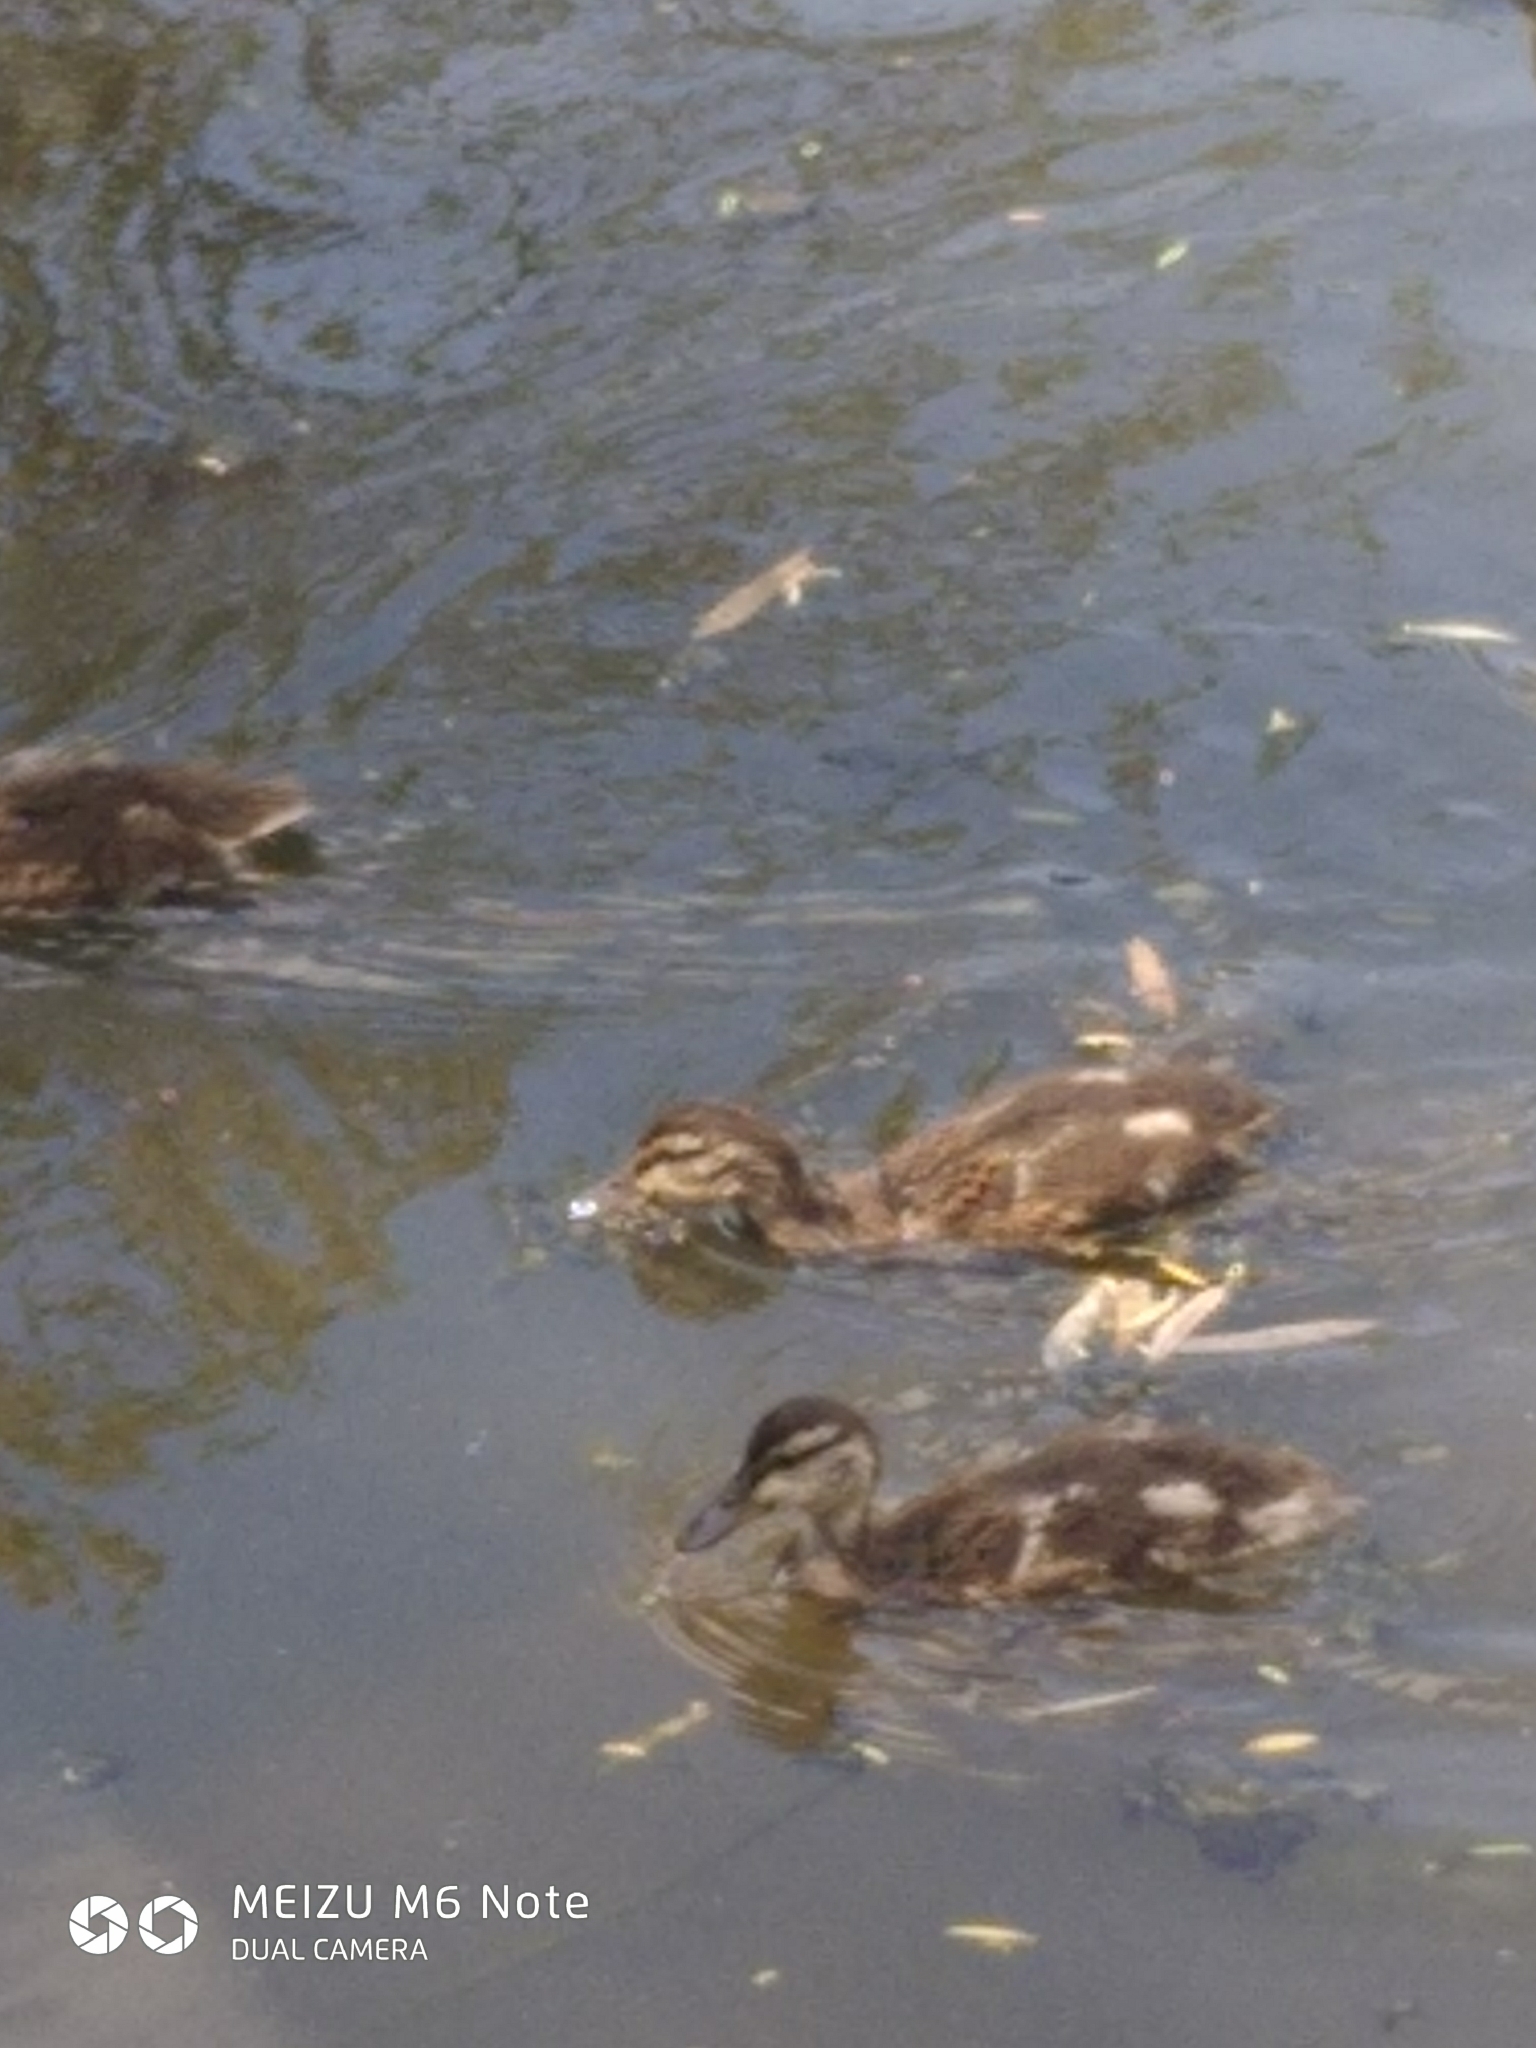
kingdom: Animalia
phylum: Chordata
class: Aves
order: Anseriformes
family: Anatidae
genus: Anas
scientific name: Anas platyrhynchos
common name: Mallard
